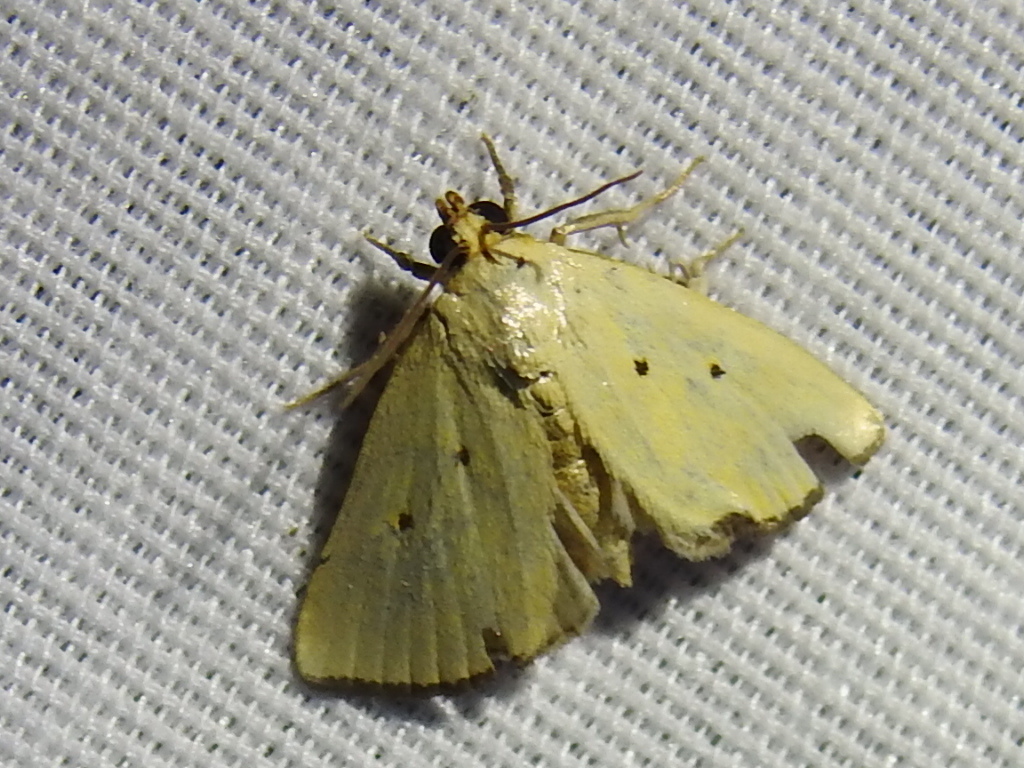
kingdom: Animalia
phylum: Arthropoda
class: Insecta
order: Lepidoptera
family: Noctuidae
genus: Marimatha
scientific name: Marimatha nigrofimbria
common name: Black-bordered lemon moth
